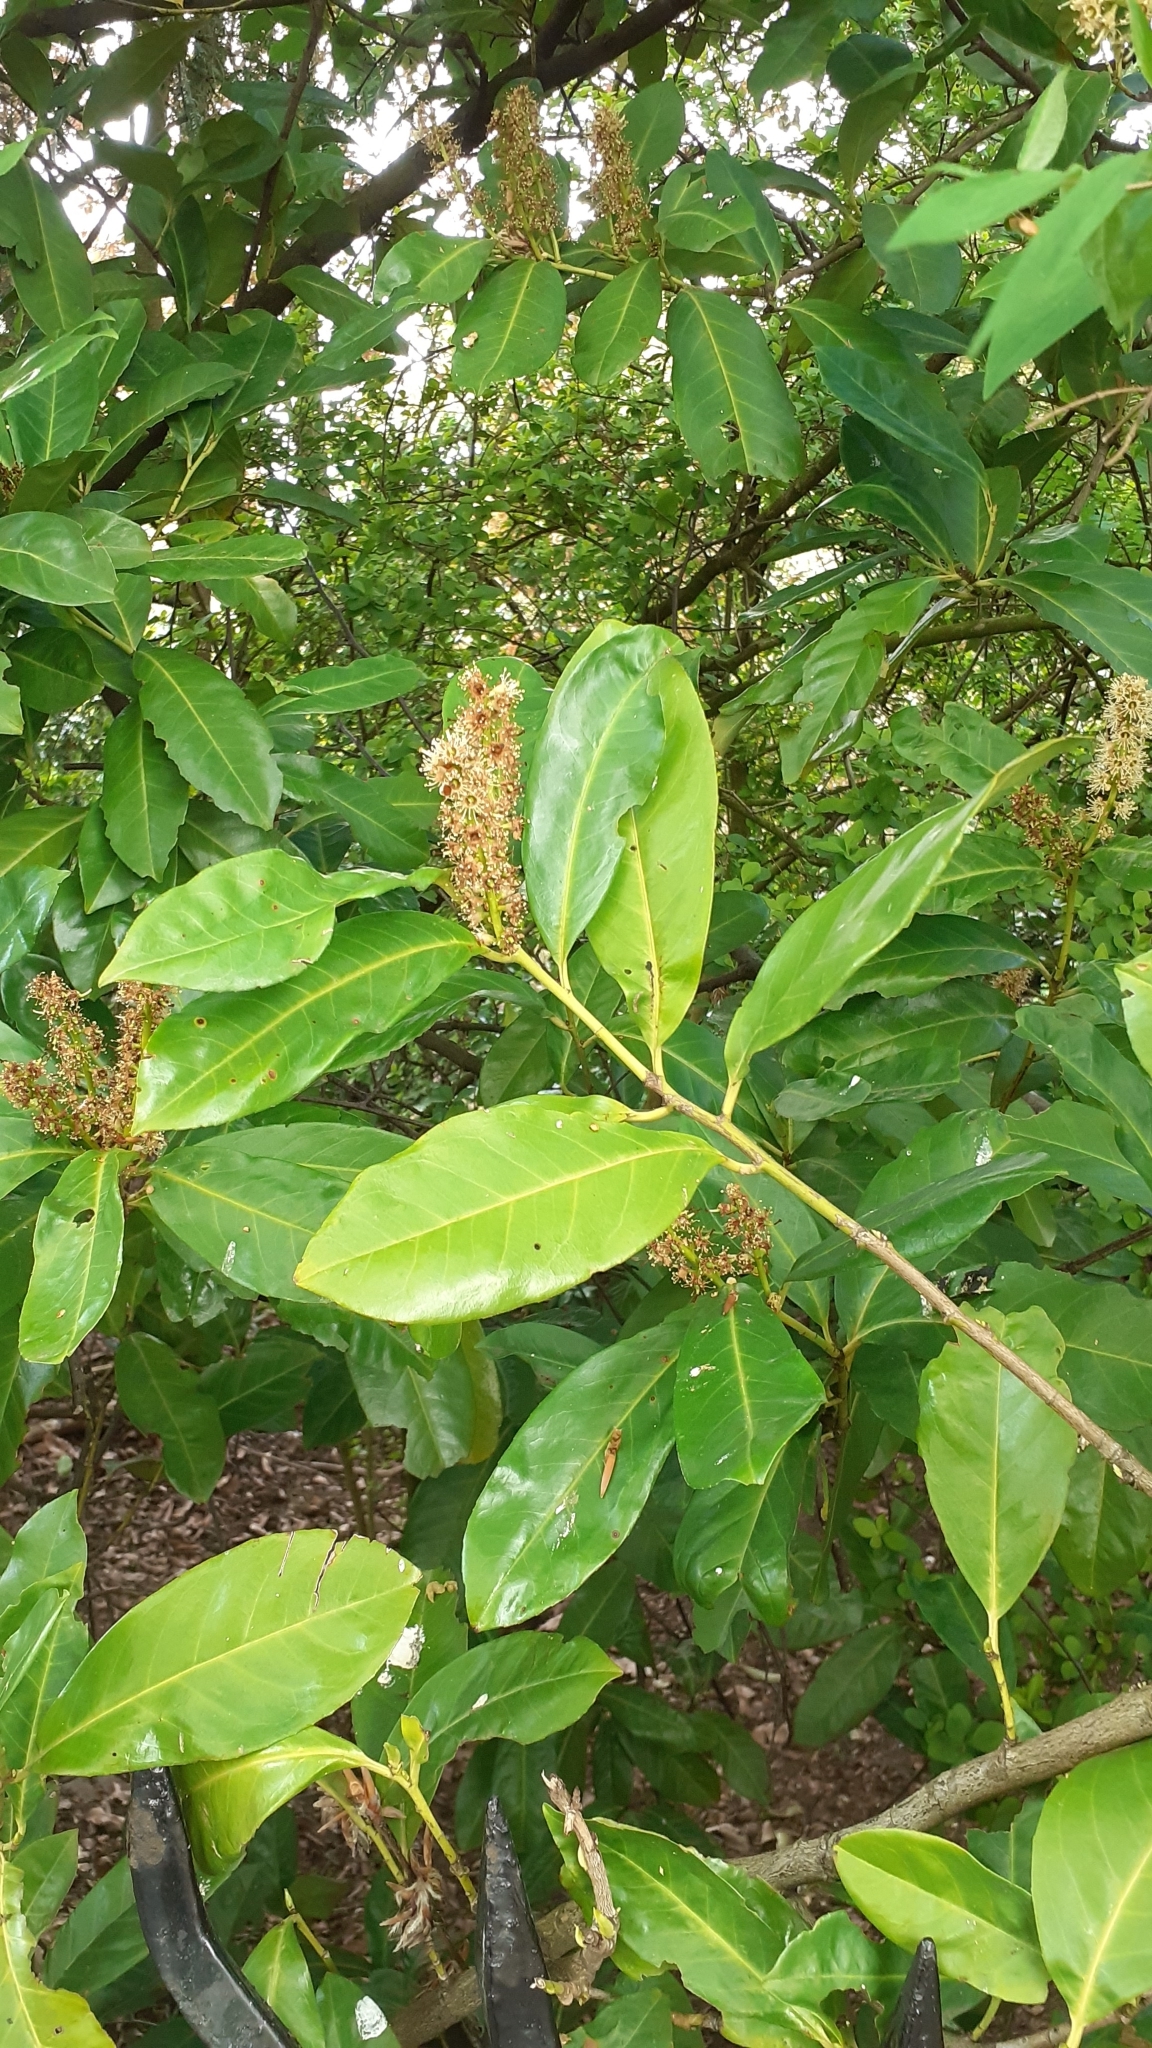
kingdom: Plantae
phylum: Tracheophyta
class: Magnoliopsida
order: Rosales
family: Rosaceae
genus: Prunus
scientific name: Prunus laurocerasus
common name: Cherry laurel
